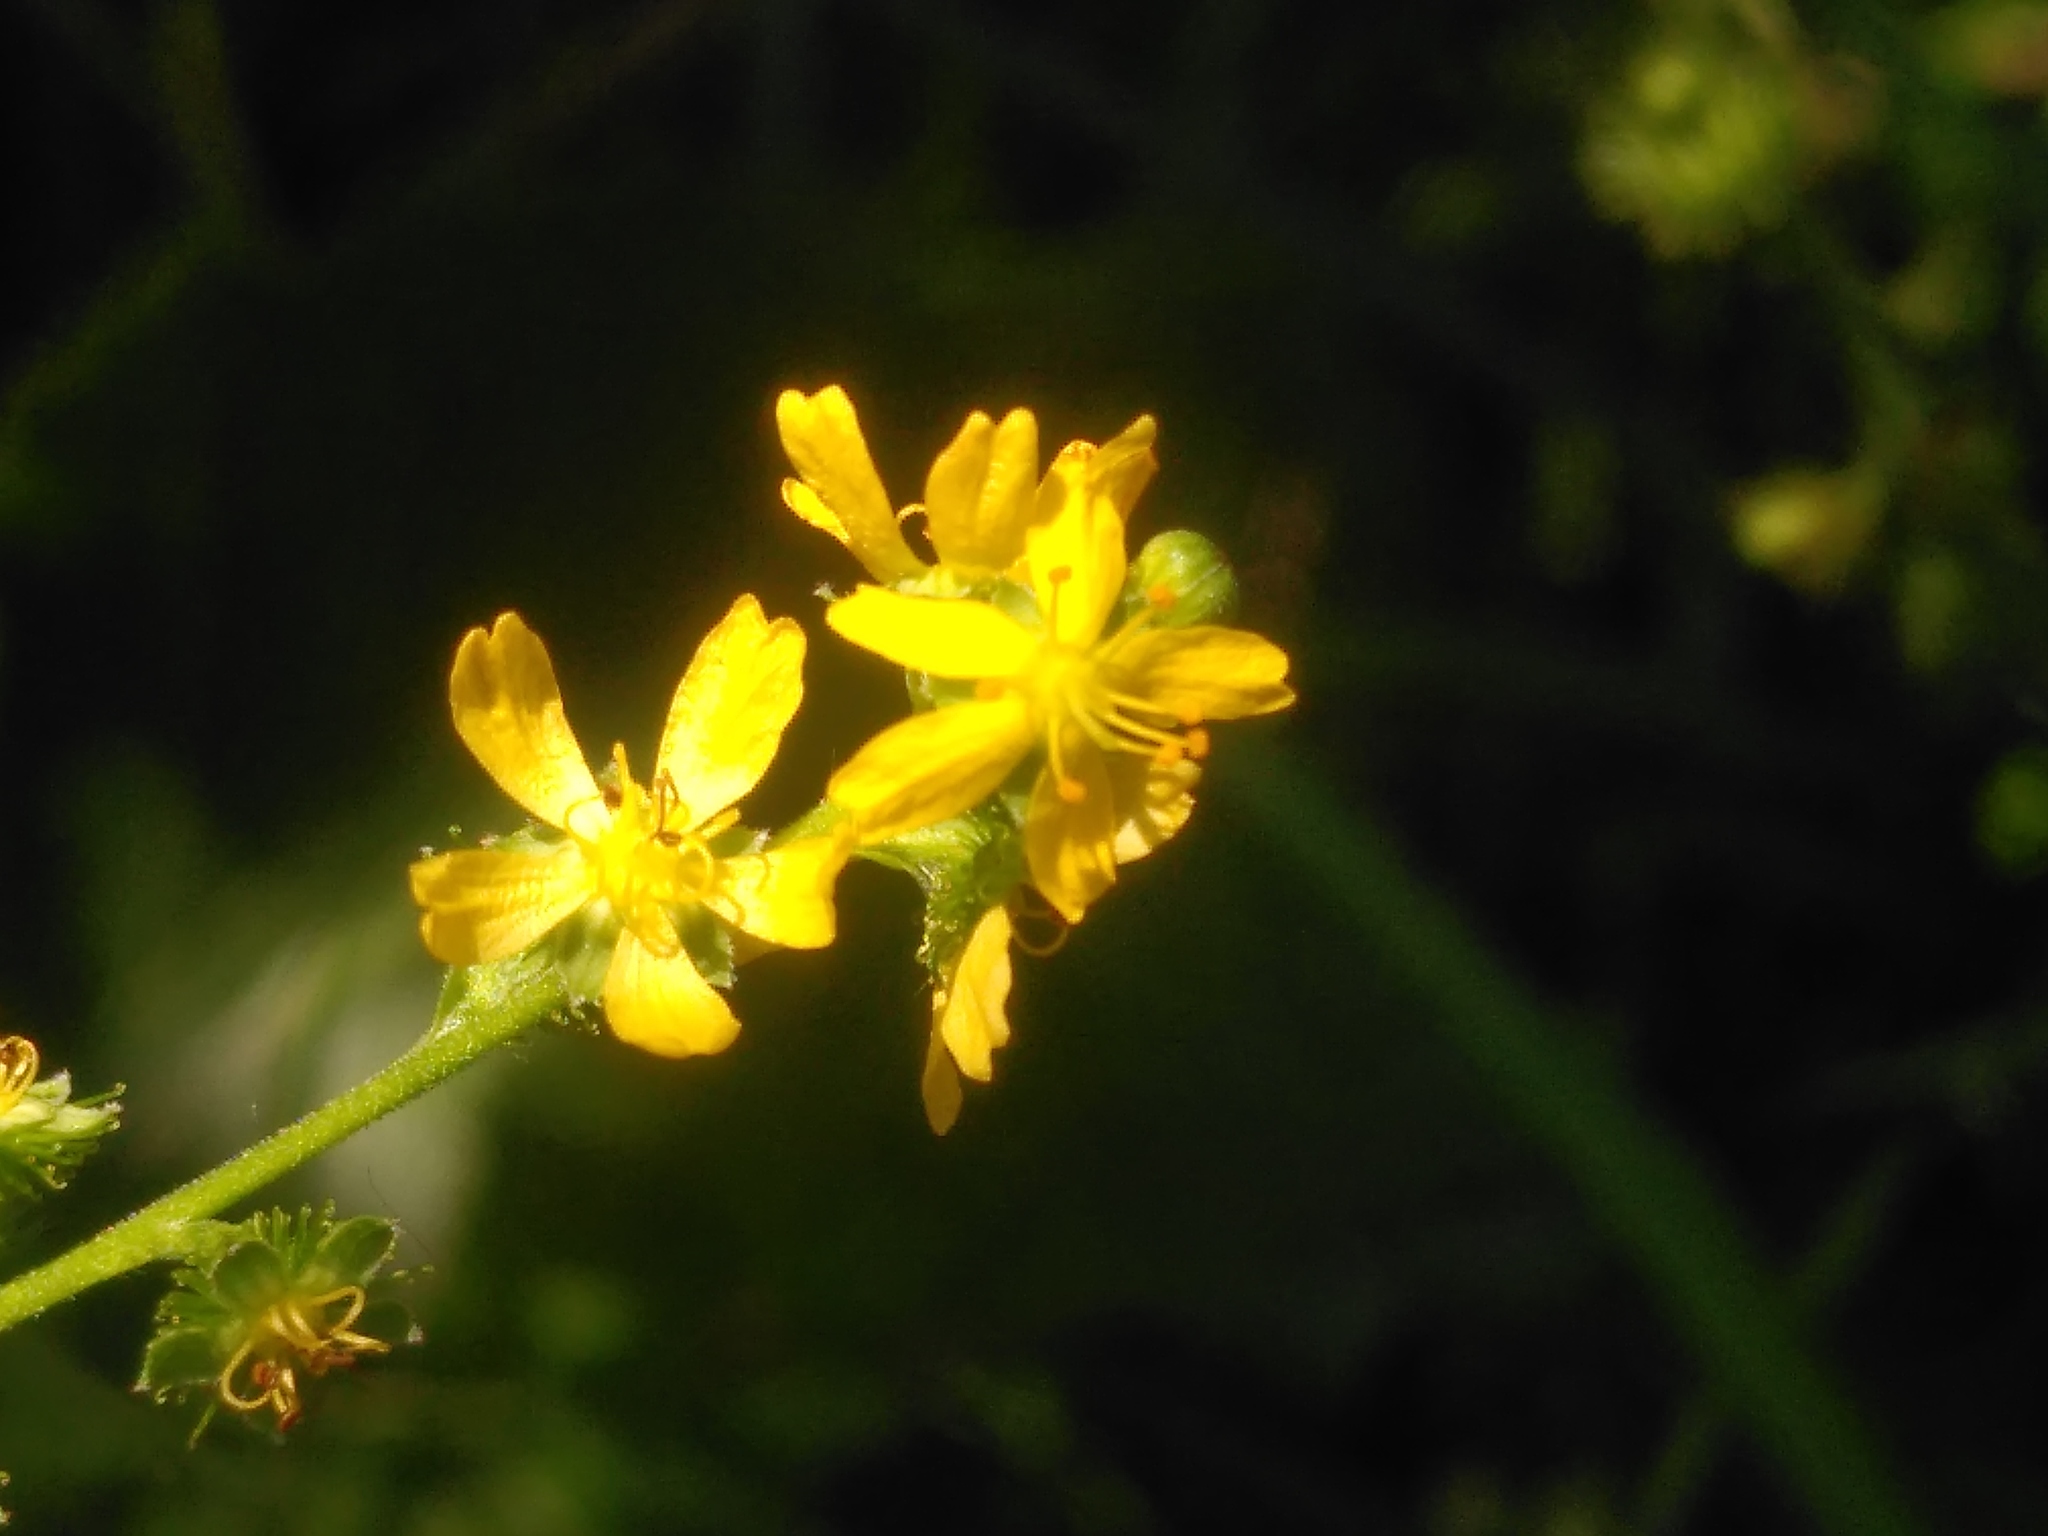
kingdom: Plantae
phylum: Tracheophyta
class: Magnoliopsida
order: Rosales
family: Rosaceae
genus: Agrimonia
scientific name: Agrimonia procera
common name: Fragrant agrimony
